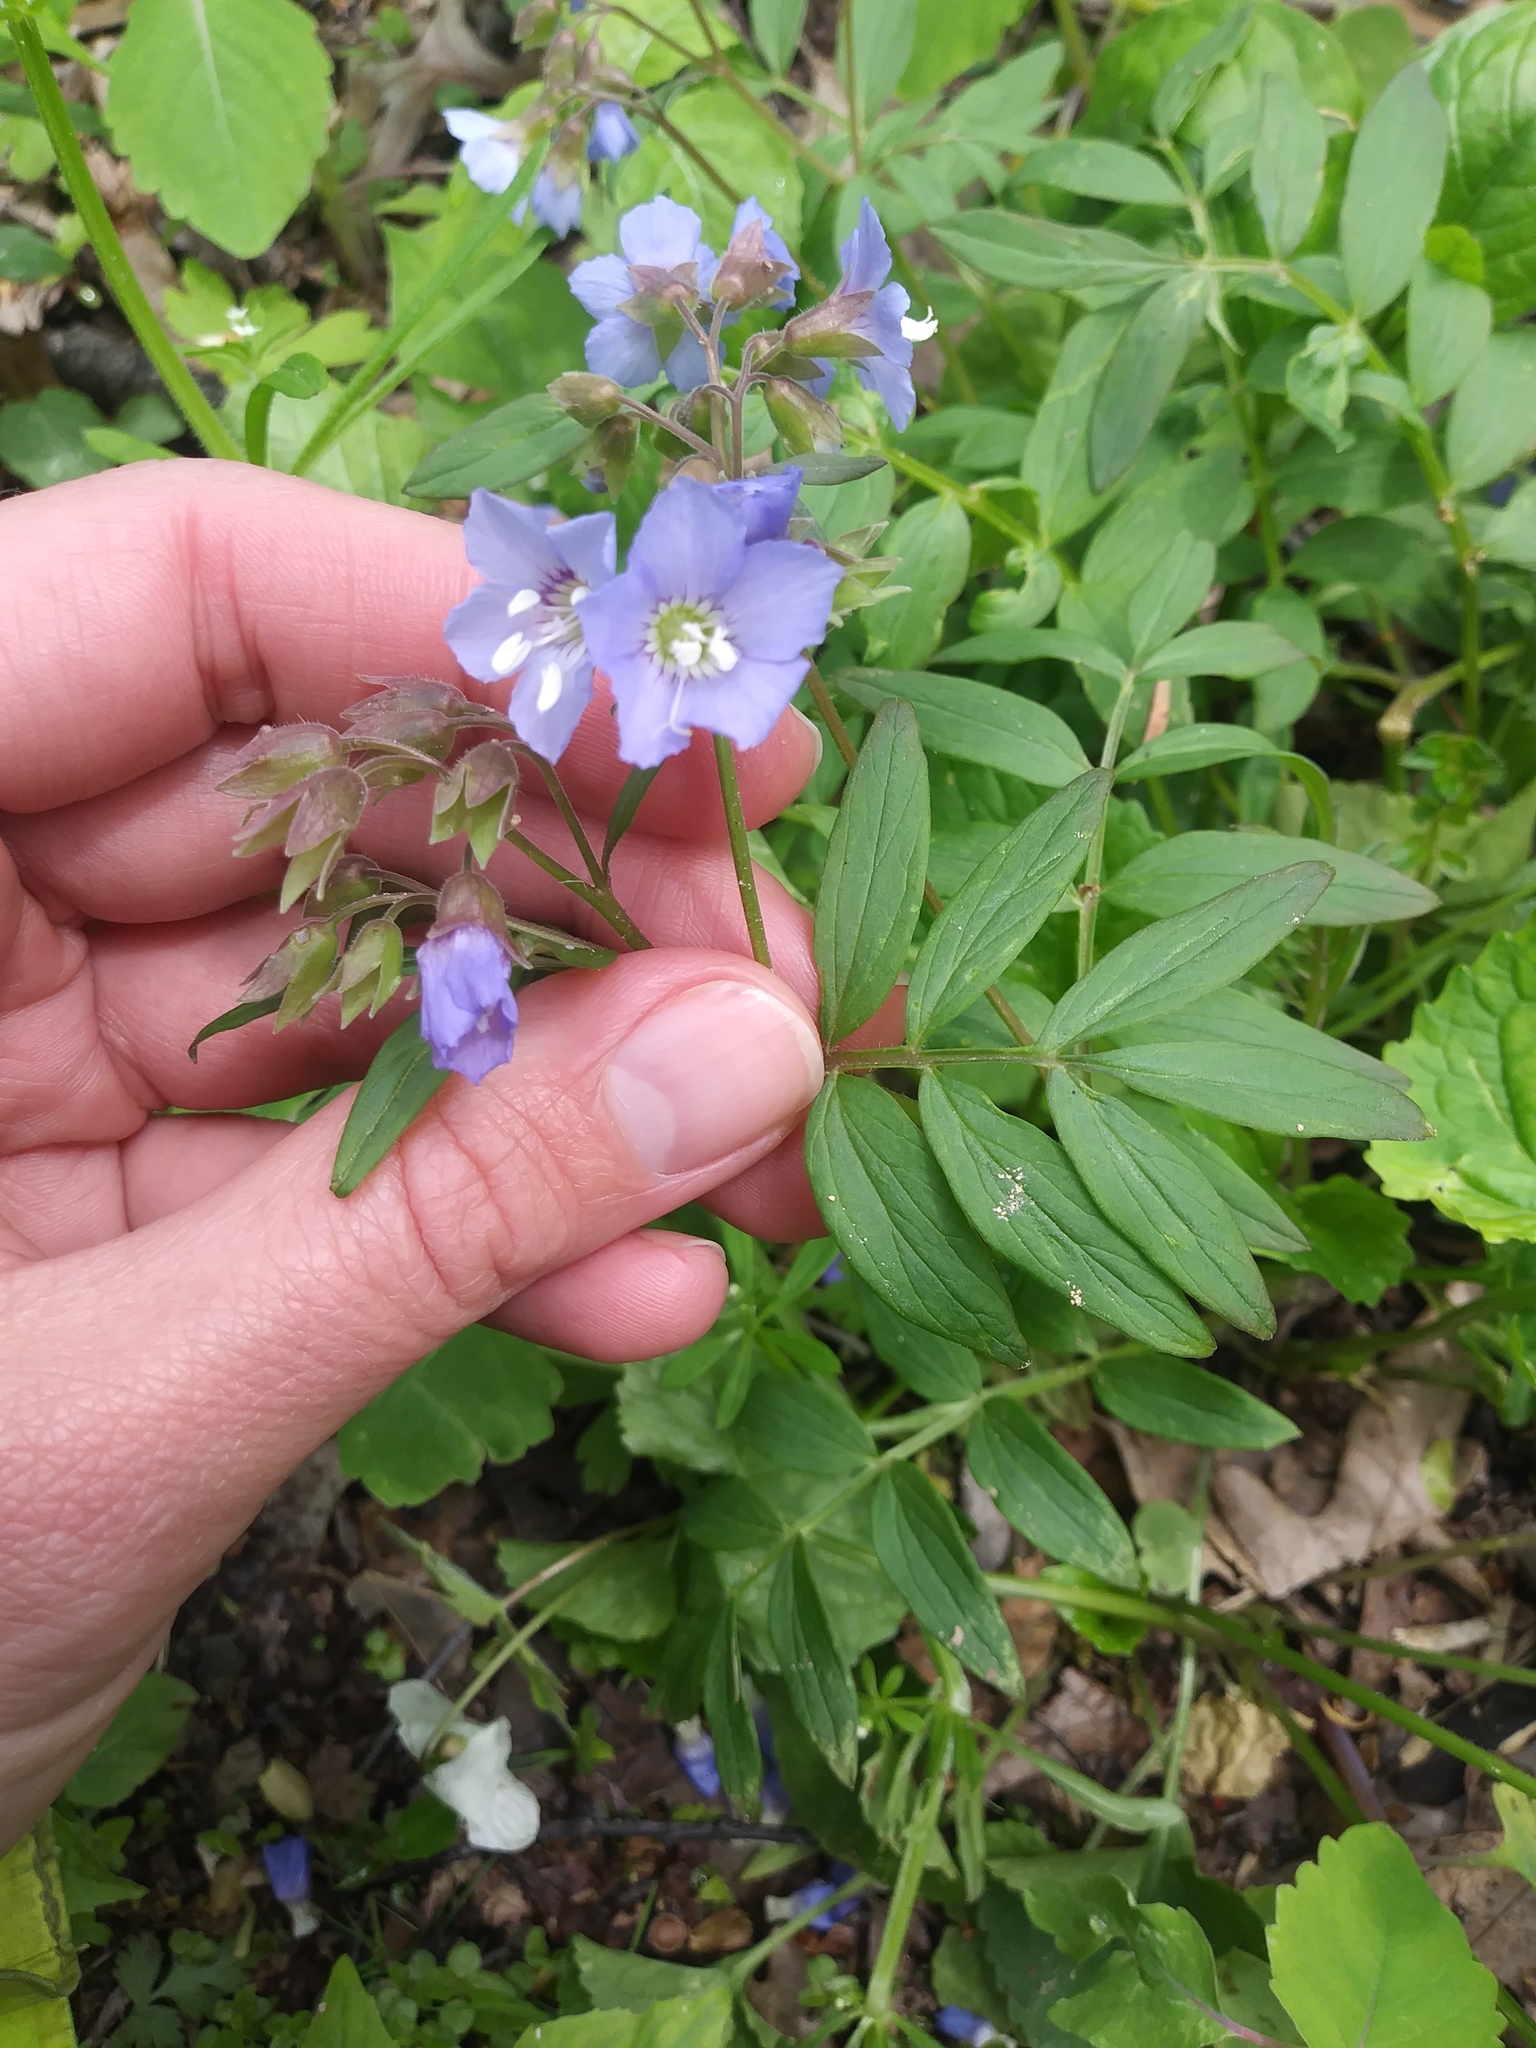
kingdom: Plantae
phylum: Tracheophyta
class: Magnoliopsida
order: Ericales
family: Polemoniaceae
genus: Polemonium
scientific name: Polemonium reptans
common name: Creeping jacob's-ladder
